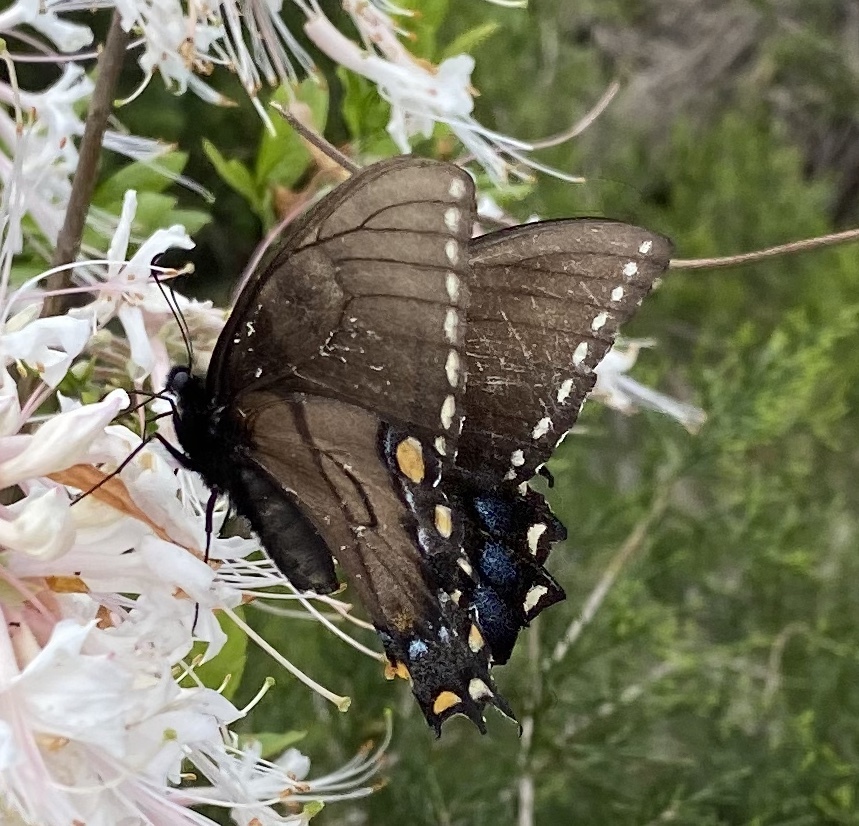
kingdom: Animalia
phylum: Arthropoda
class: Insecta
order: Lepidoptera
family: Papilionidae
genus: Papilio
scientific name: Papilio glaucus
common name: Tiger swallowtail
